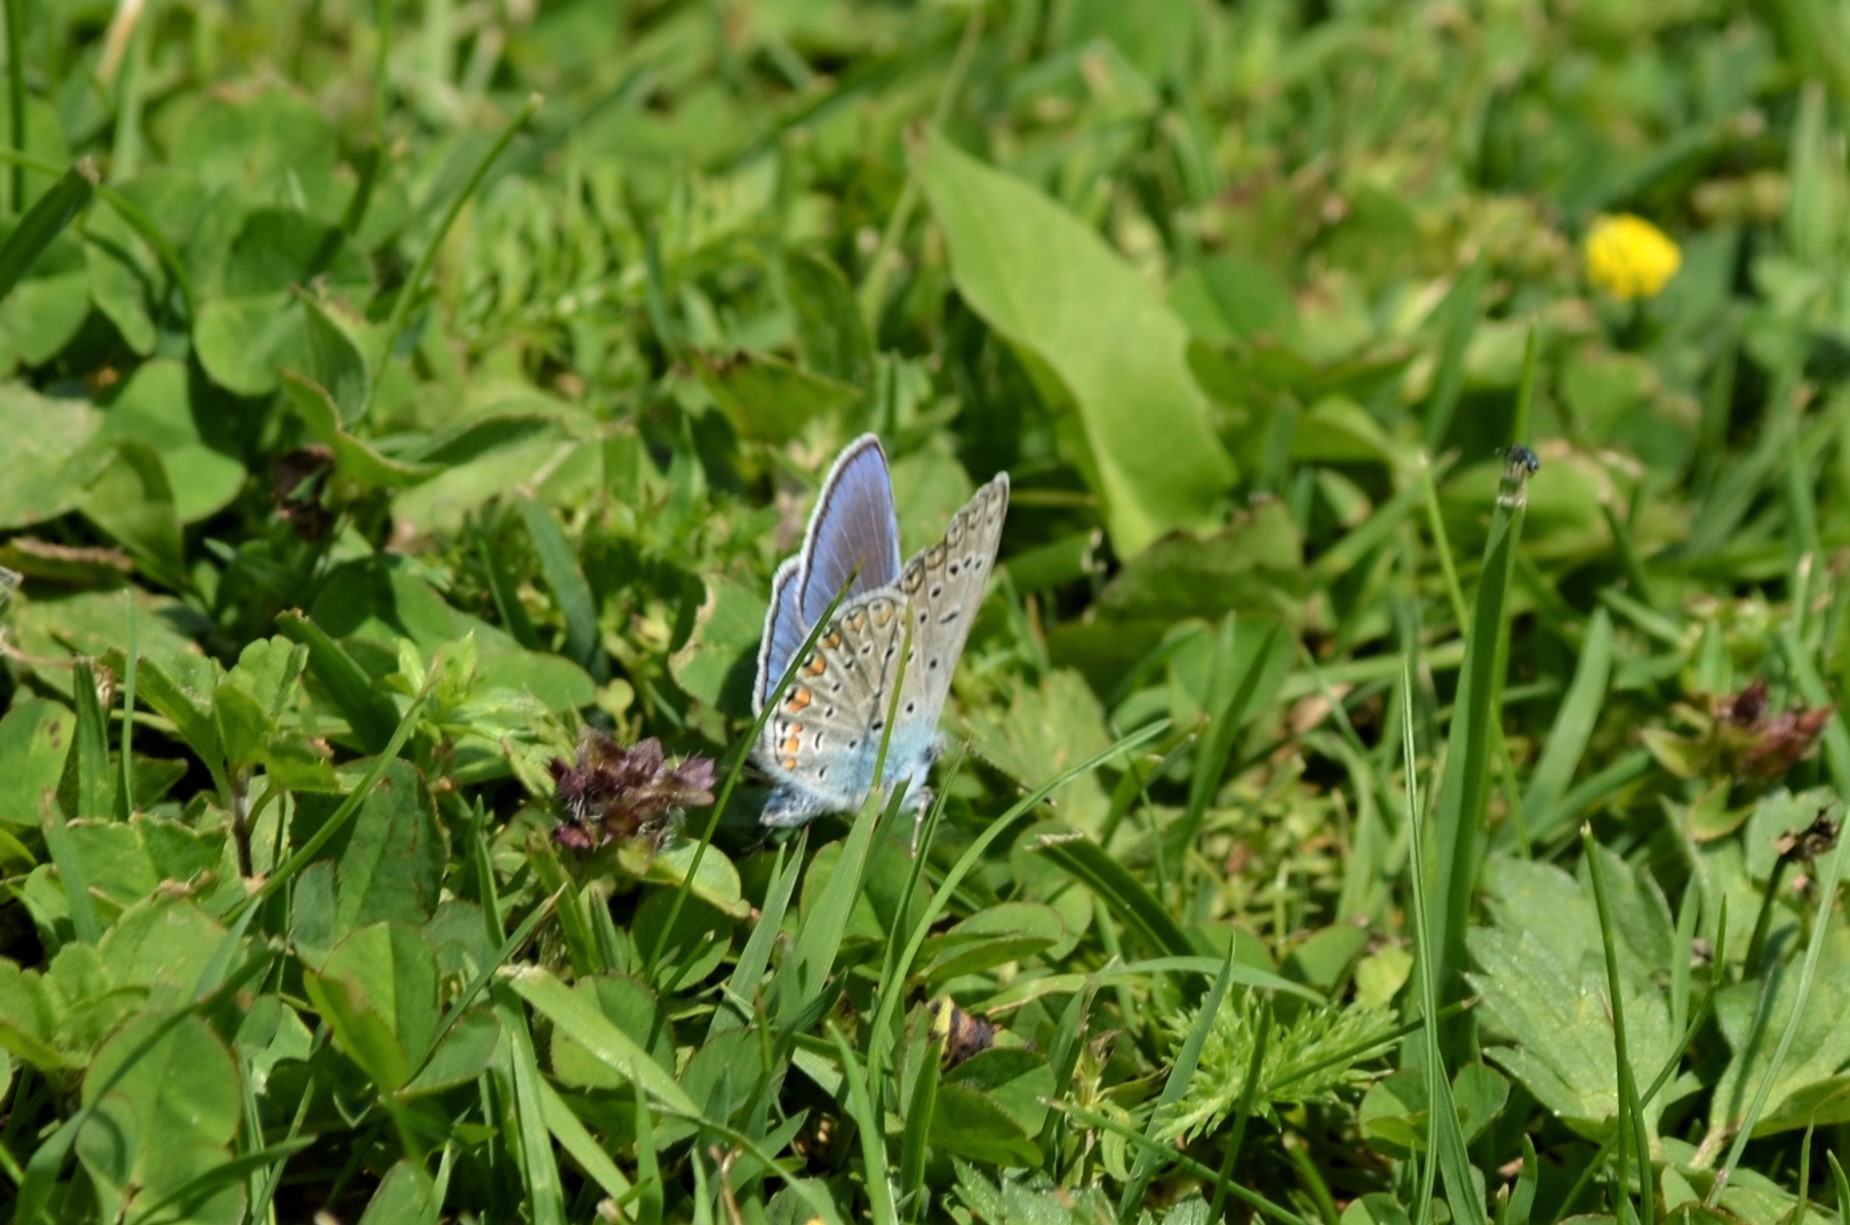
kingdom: Animalia
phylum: Arthropoda
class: Insecta
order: Lepidoptera
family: Lycaenidae
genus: Polyommatus
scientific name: Polyommatus icarus
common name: Common blue
